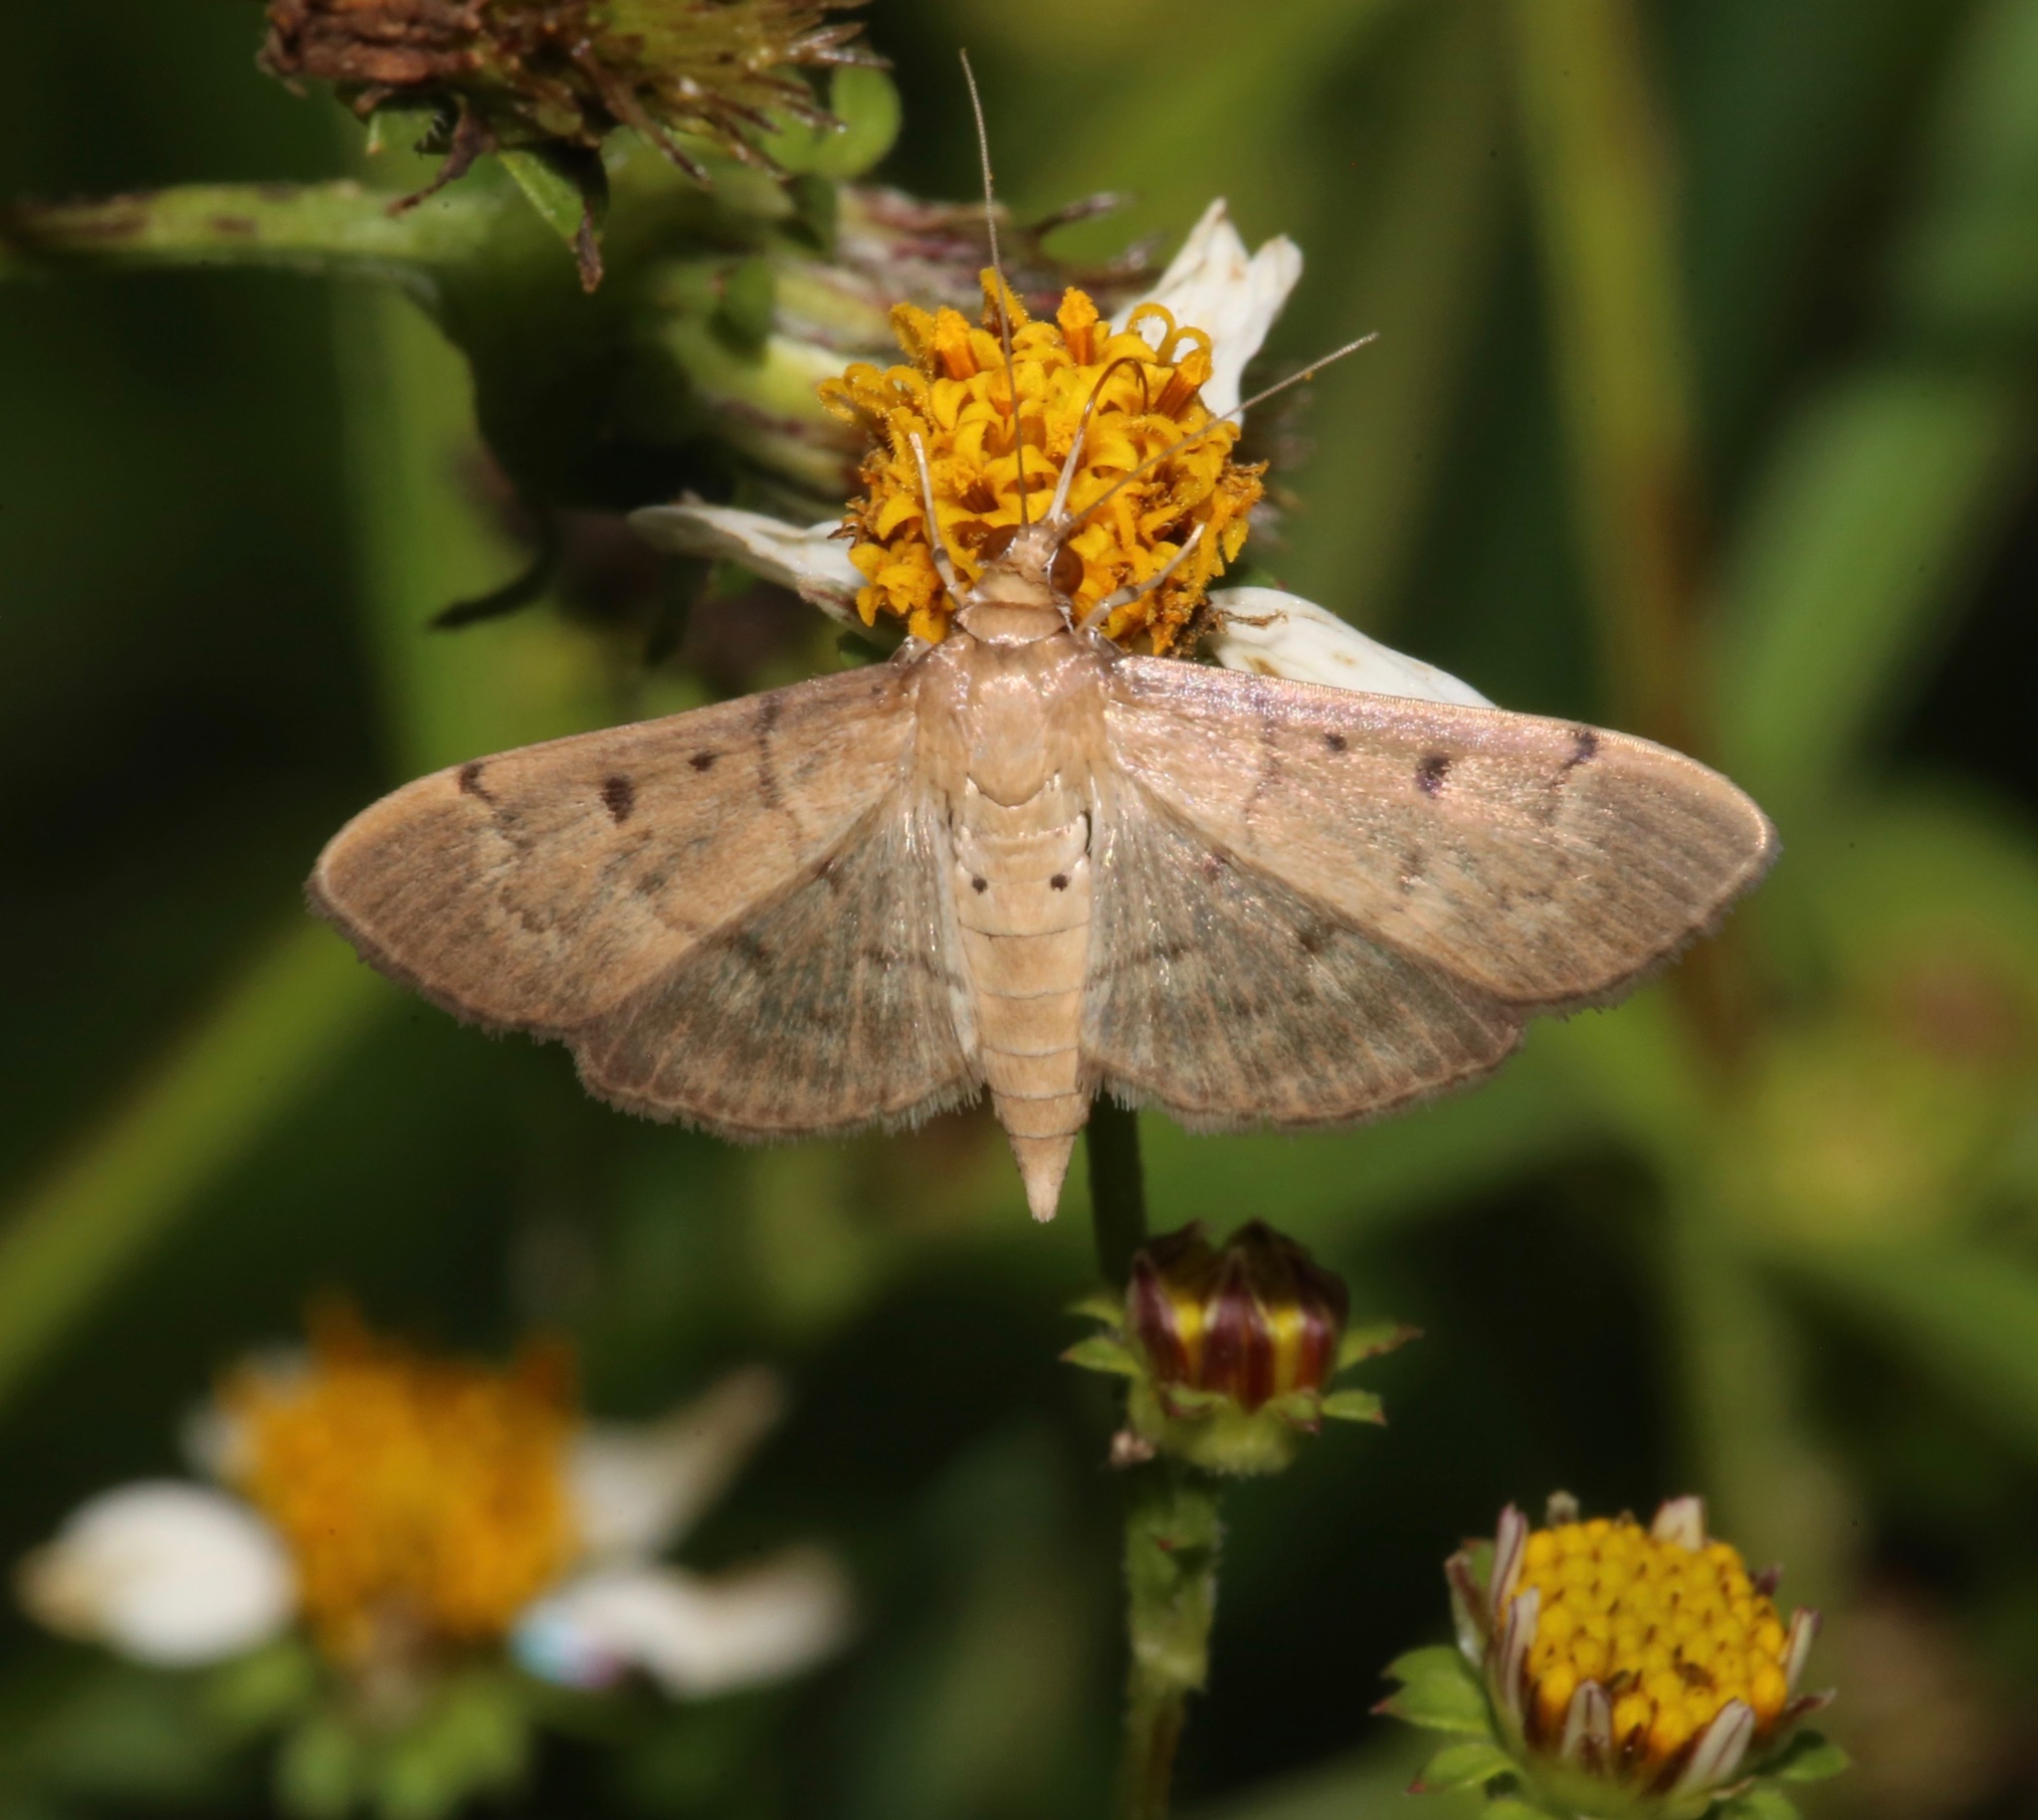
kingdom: Animalia
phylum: Arthropoda
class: Insecta
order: Lepidoptera
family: Crambidae
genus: Herpetogramma
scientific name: Herpetogramma bipunctalis
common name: Southern beet webworm
